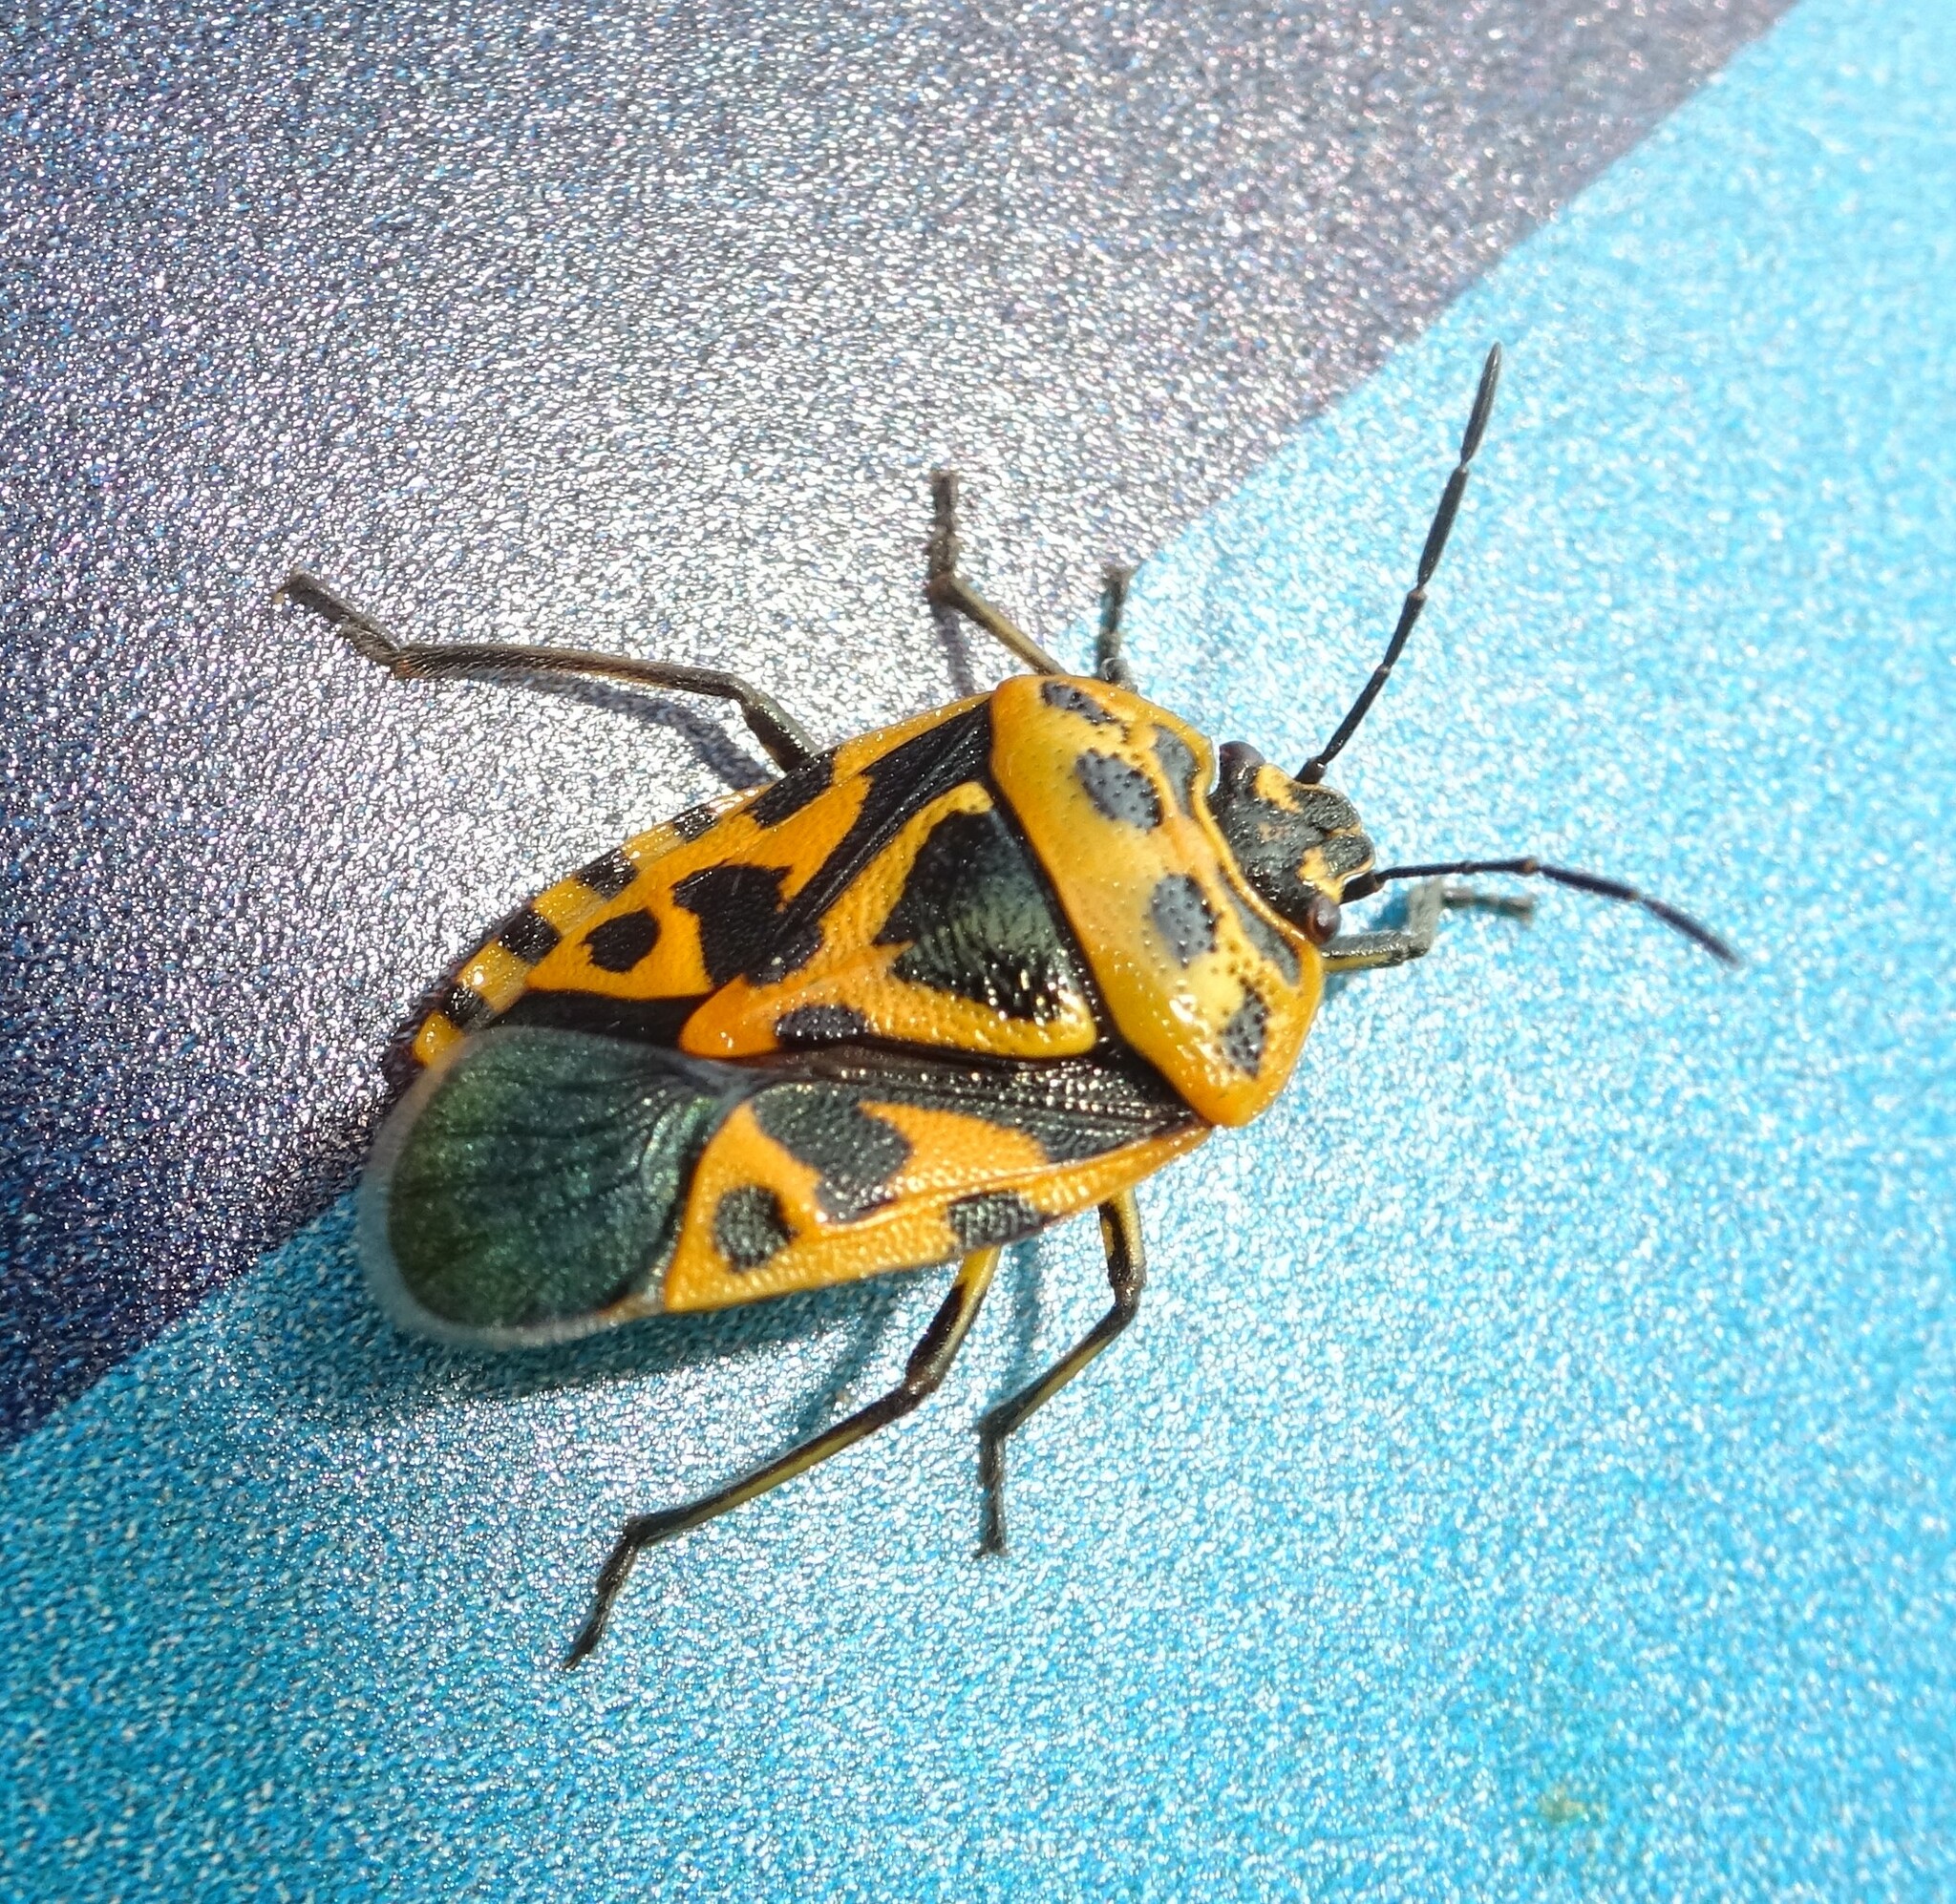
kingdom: Animalia
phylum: Arthropoda
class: Insecta
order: Hemiptera
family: Pentatomidae
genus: Eurydema
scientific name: Eurydema ventralis
